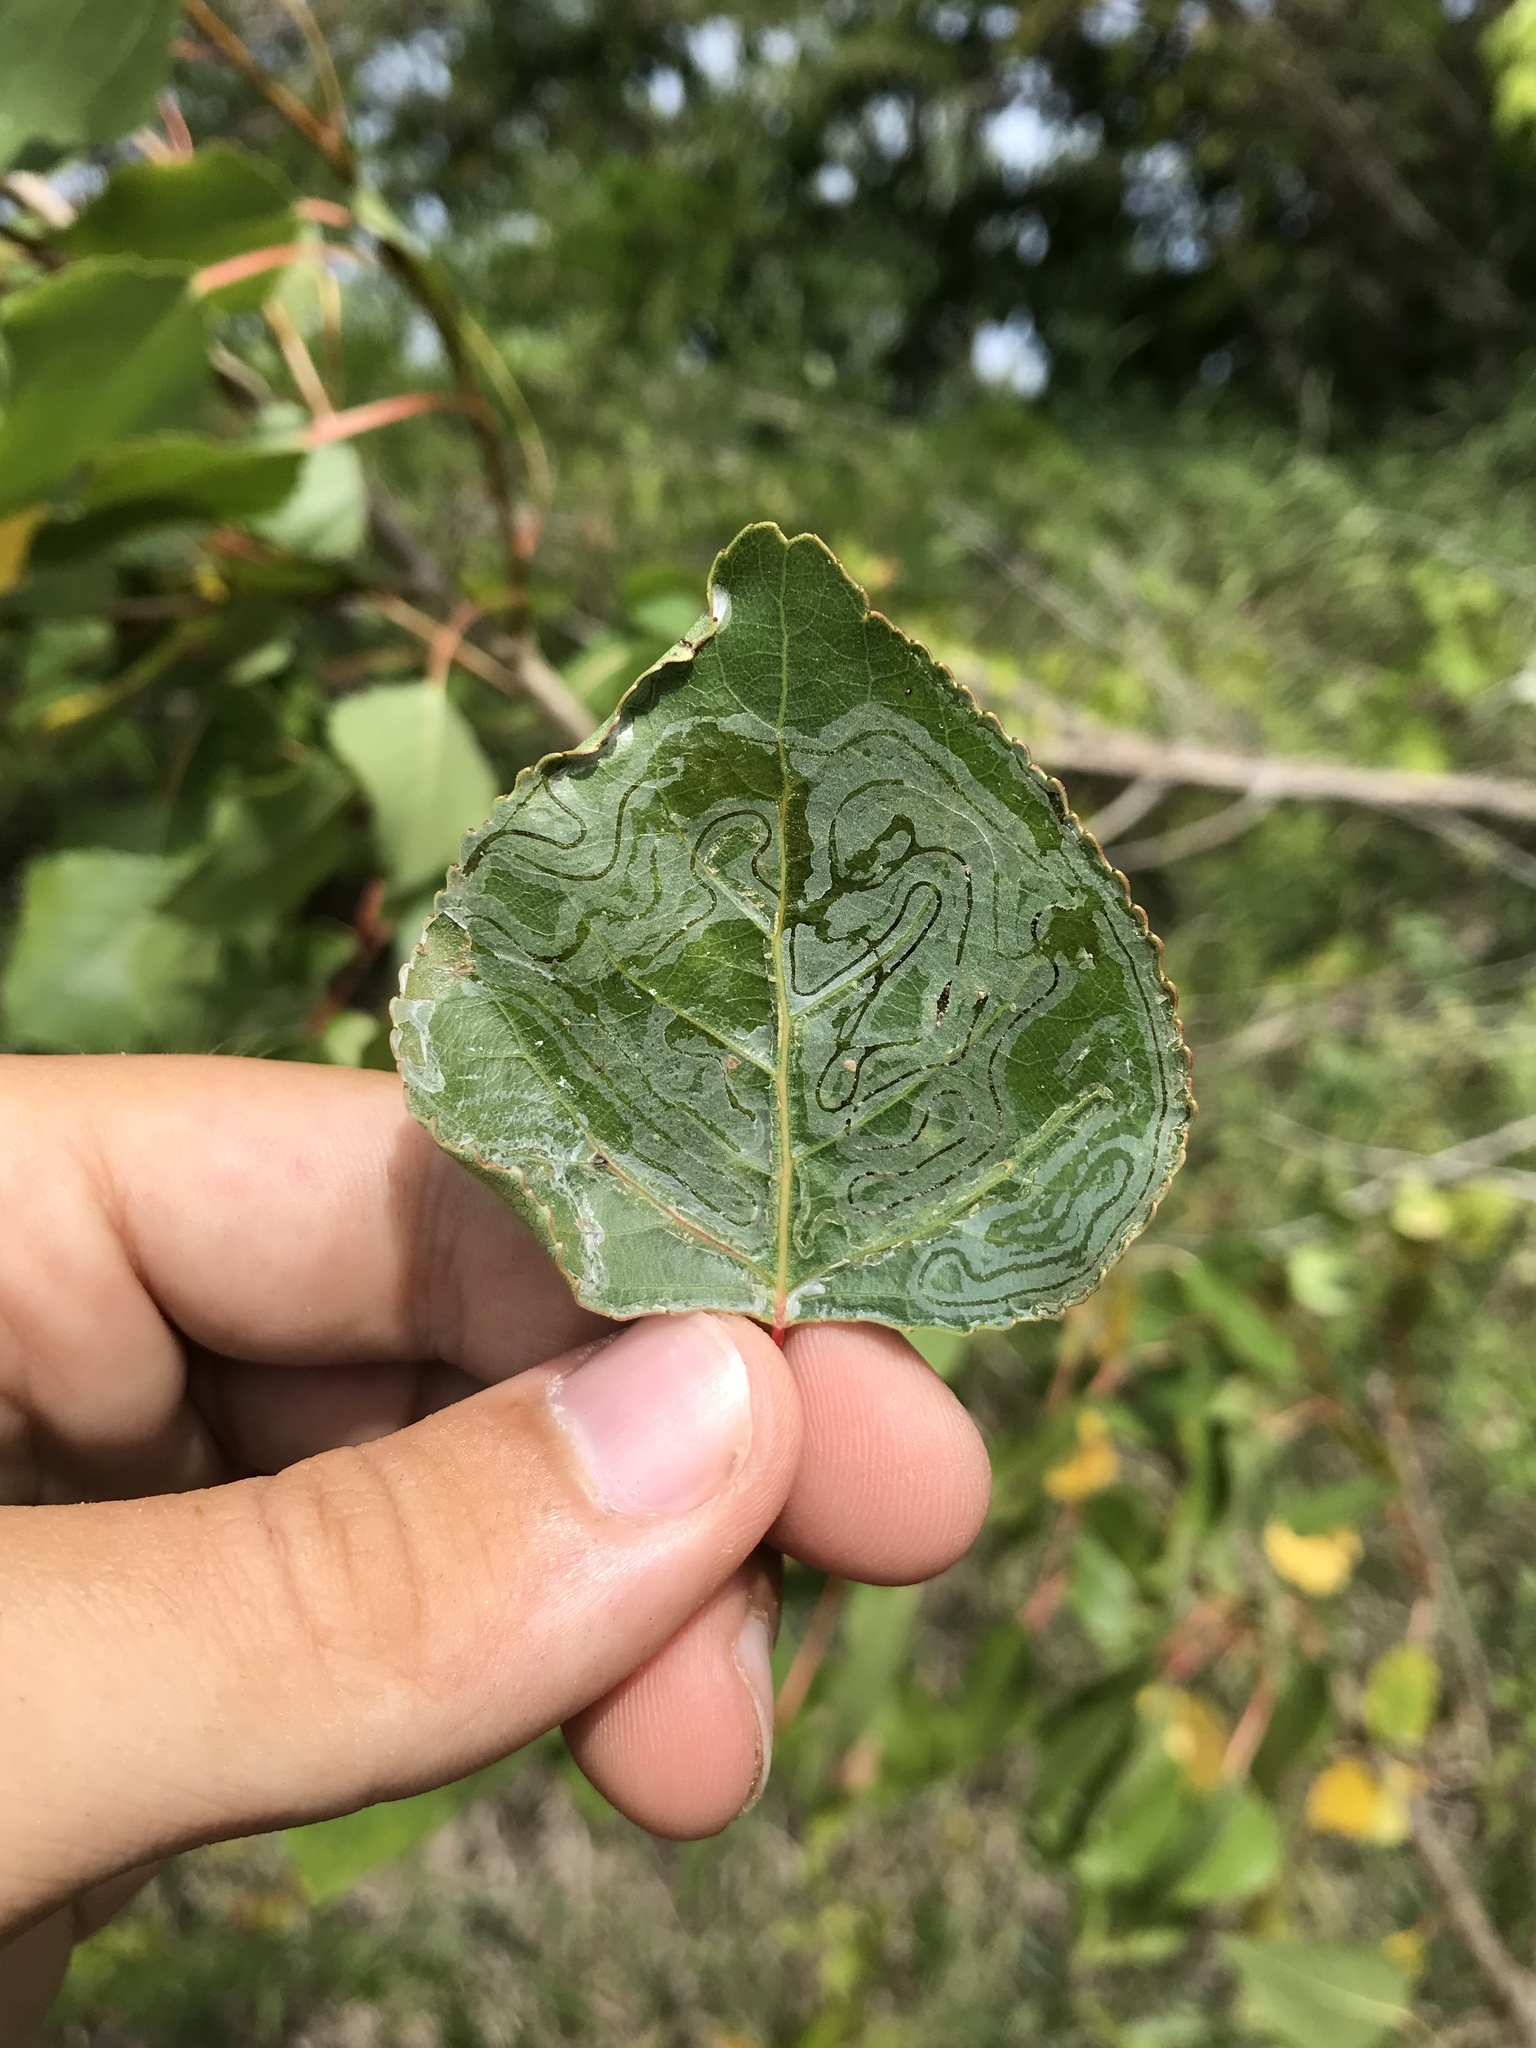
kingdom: Animalia
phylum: Arthropoda
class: Insecta
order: Lepidoptera
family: Gracillariidae
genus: Phyllocnistis
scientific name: Phyllocnistis populiella
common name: Aspen serpentine leafminer moth
